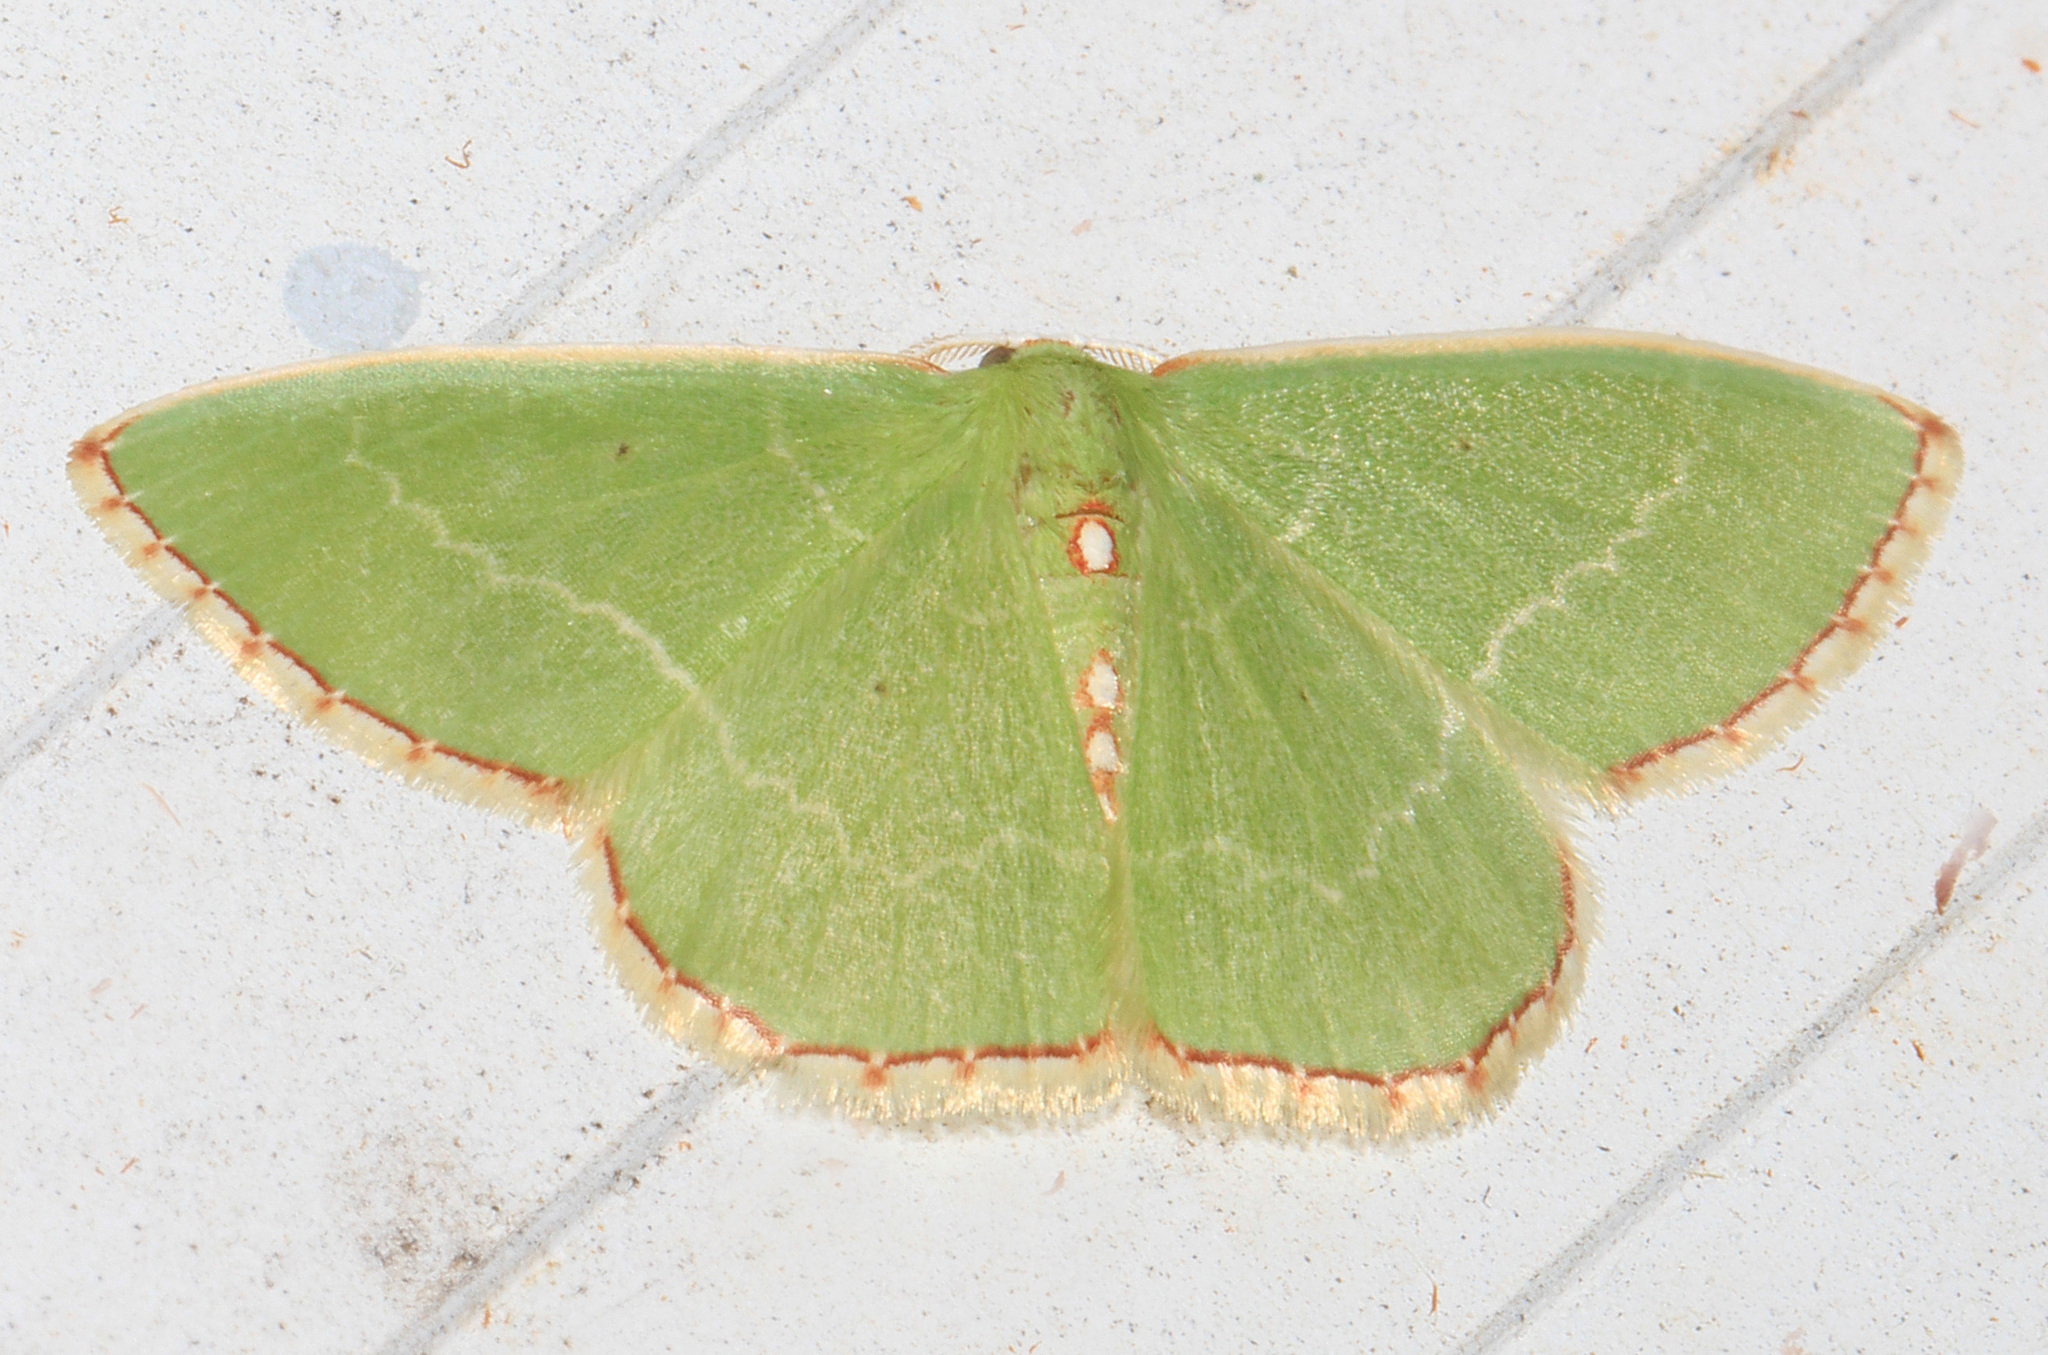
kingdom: Animalia
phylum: Arthropoda
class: Insecta
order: Lepidoptera
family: Geometridae
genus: Nemoria
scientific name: Nemoria lixaria
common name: Red-bordered emerald
